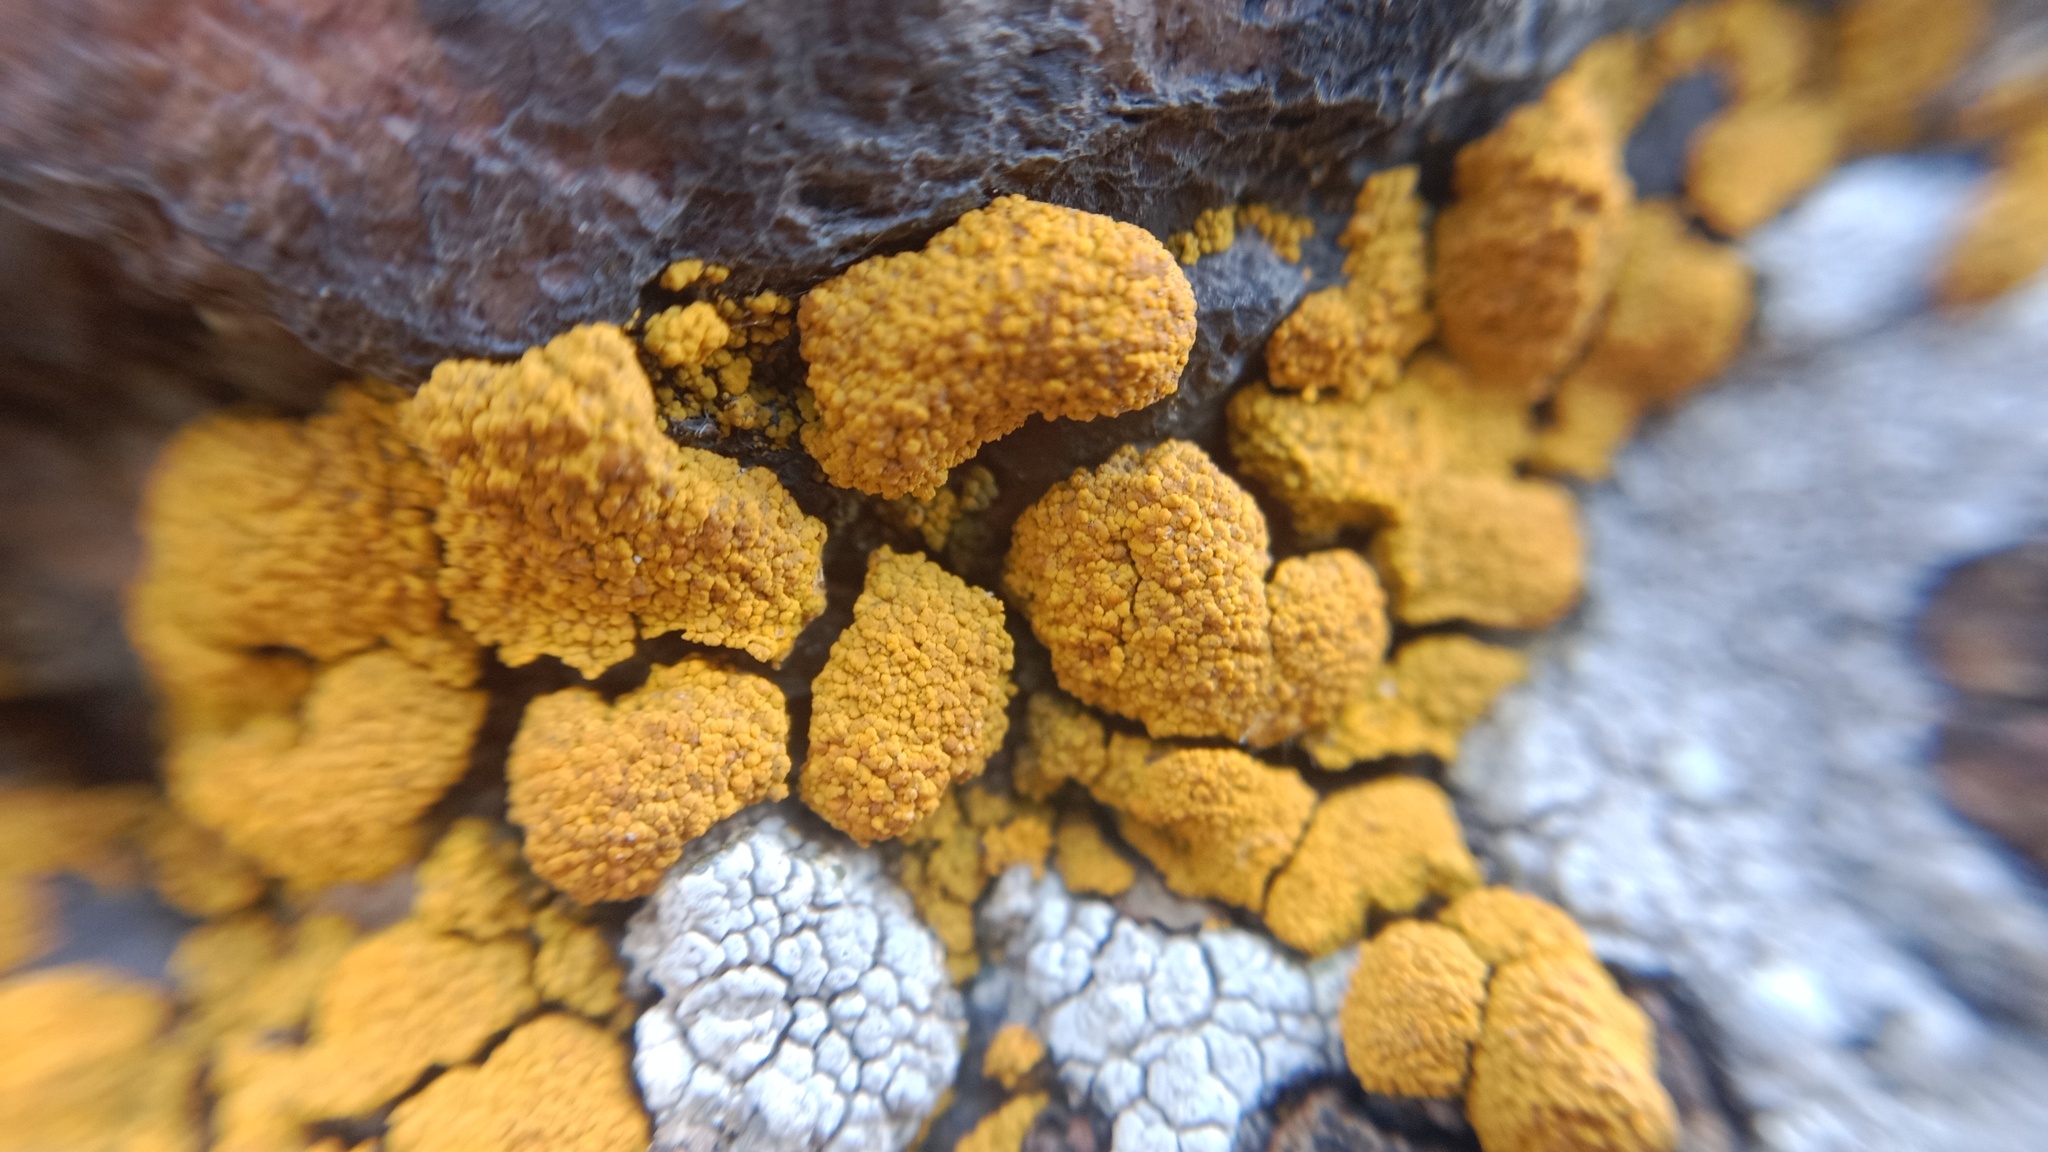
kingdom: Fungi
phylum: Ascomycota
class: Candelariomycetes
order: Candelariales
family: Candelariaceae
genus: Candelariella
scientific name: Candelariella vitellina
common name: Common goldspeck
